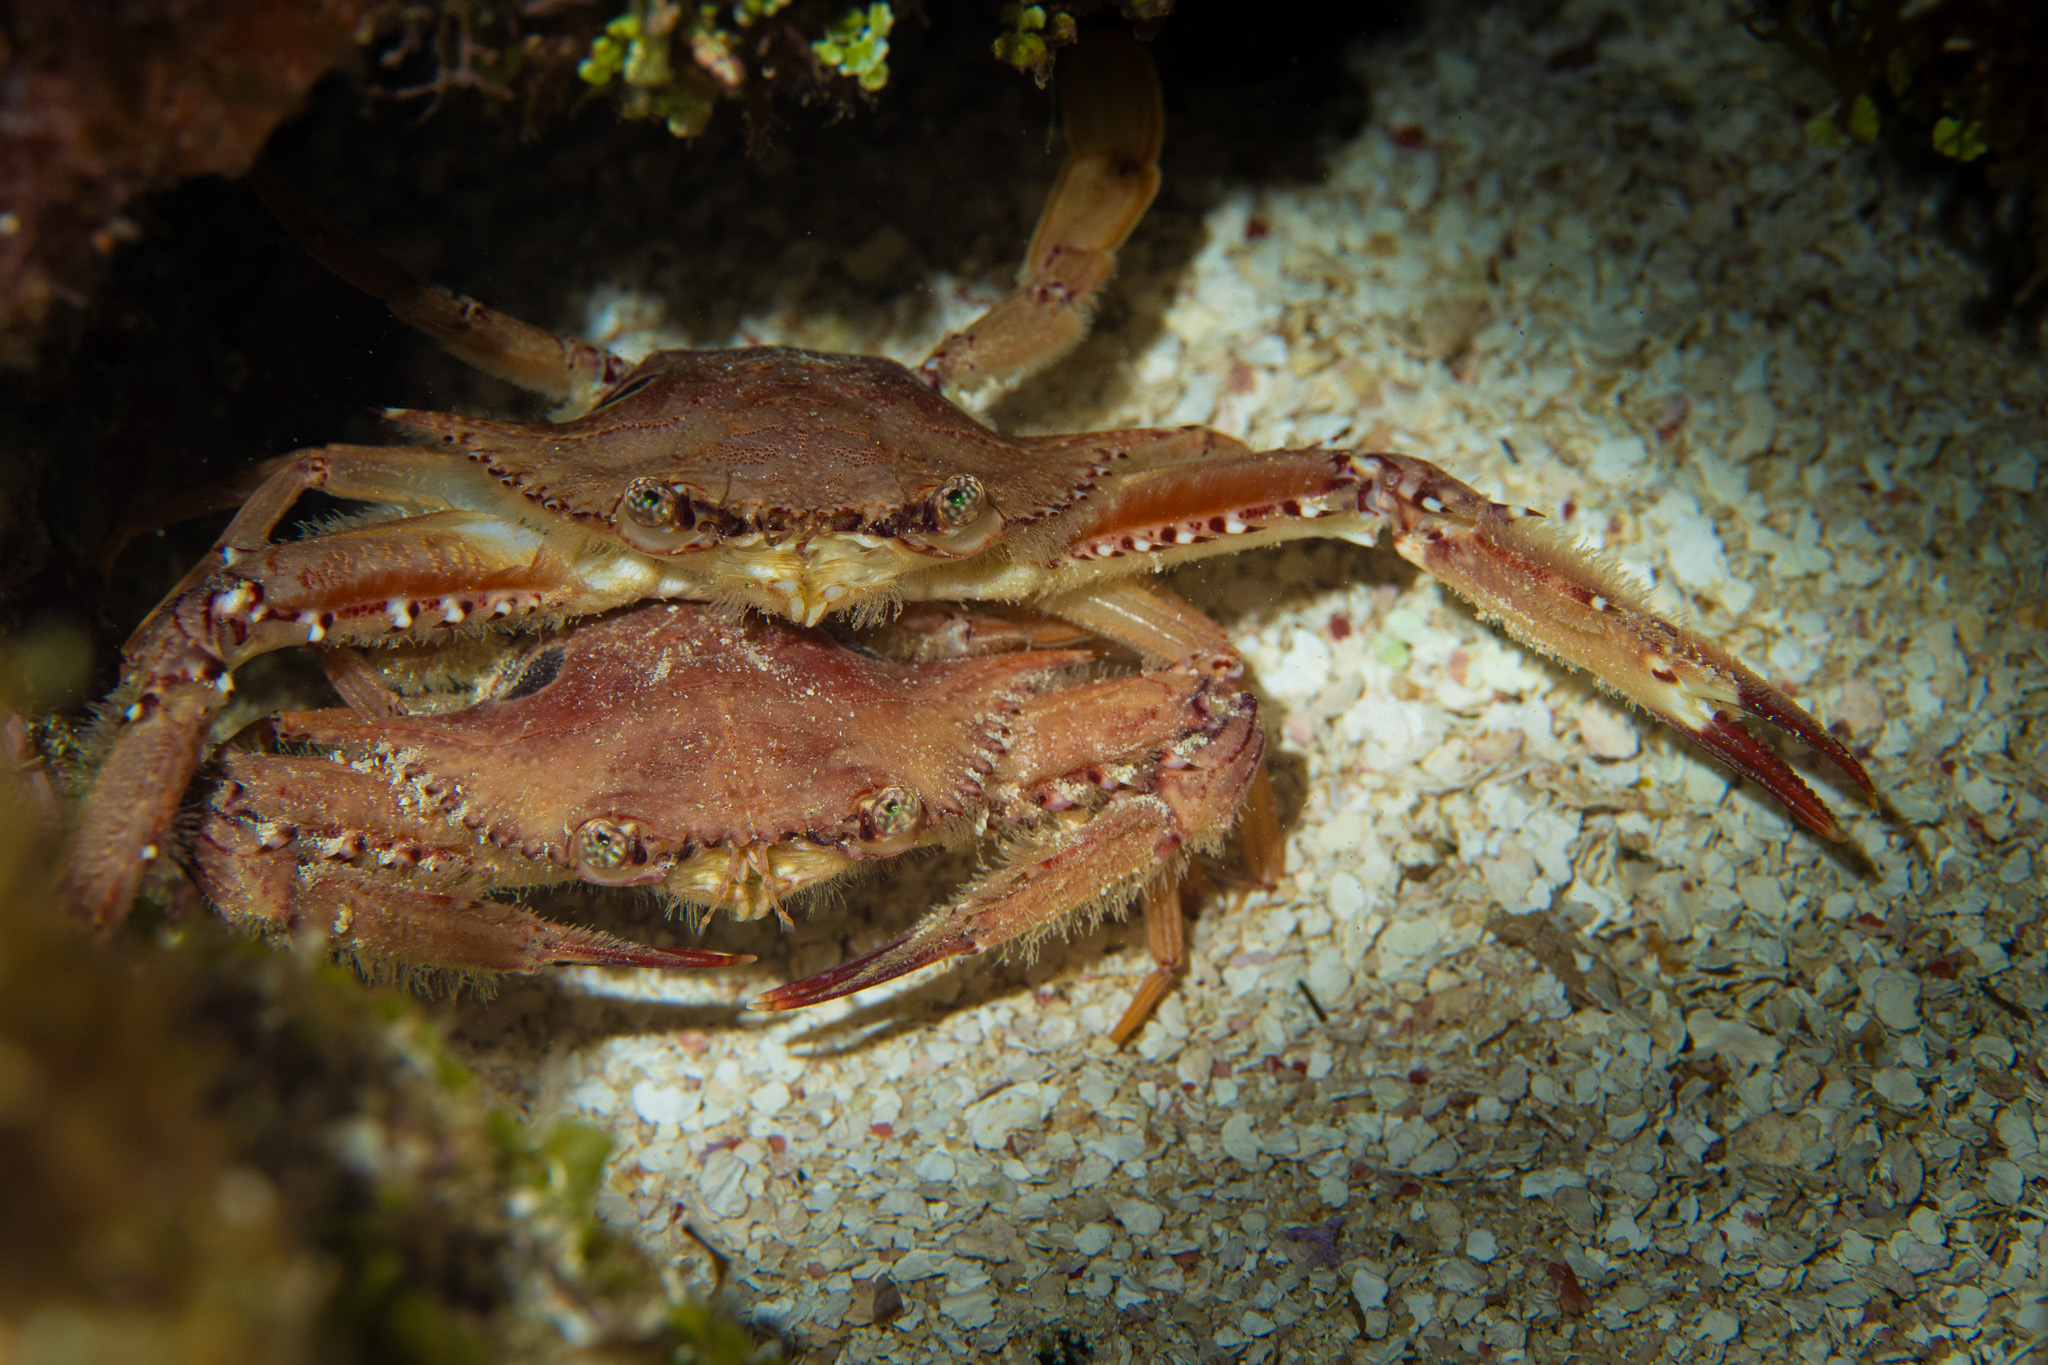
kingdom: Animalia
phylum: Arthropoda
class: Malacostraca
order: Decapoda
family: Portunidae
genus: Achelous
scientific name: Achelous sebae
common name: Ocellate swimming crab
